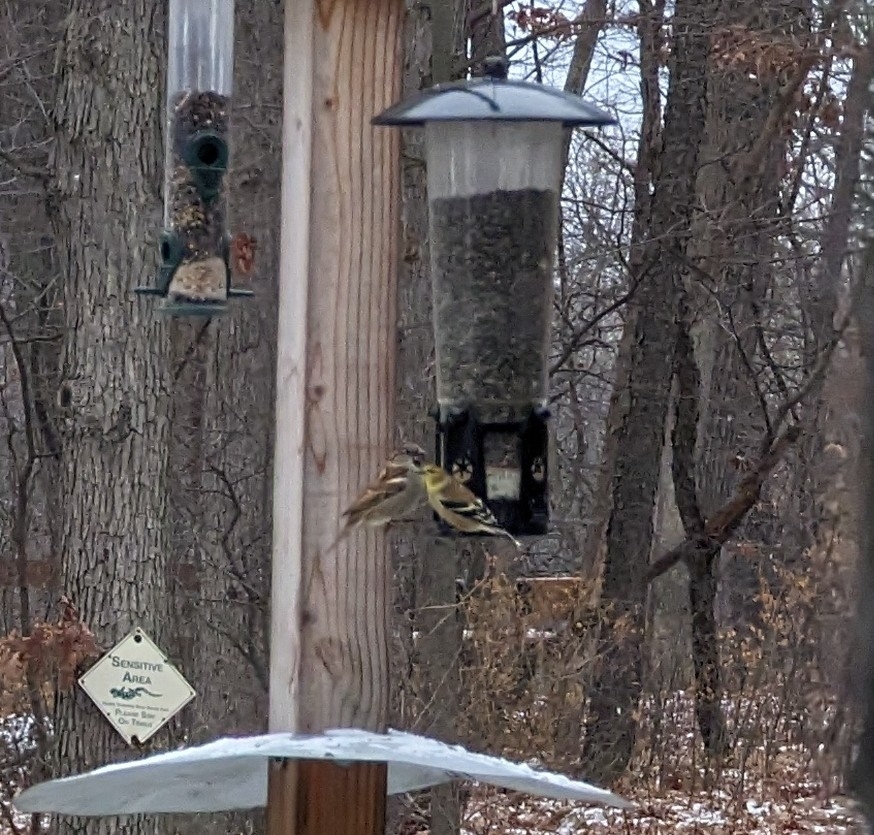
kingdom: Animalia
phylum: Chordata
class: Aves
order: Passeriformes
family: Fringillidae
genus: Spinus
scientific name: Spinus tristis
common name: American goldfinch
